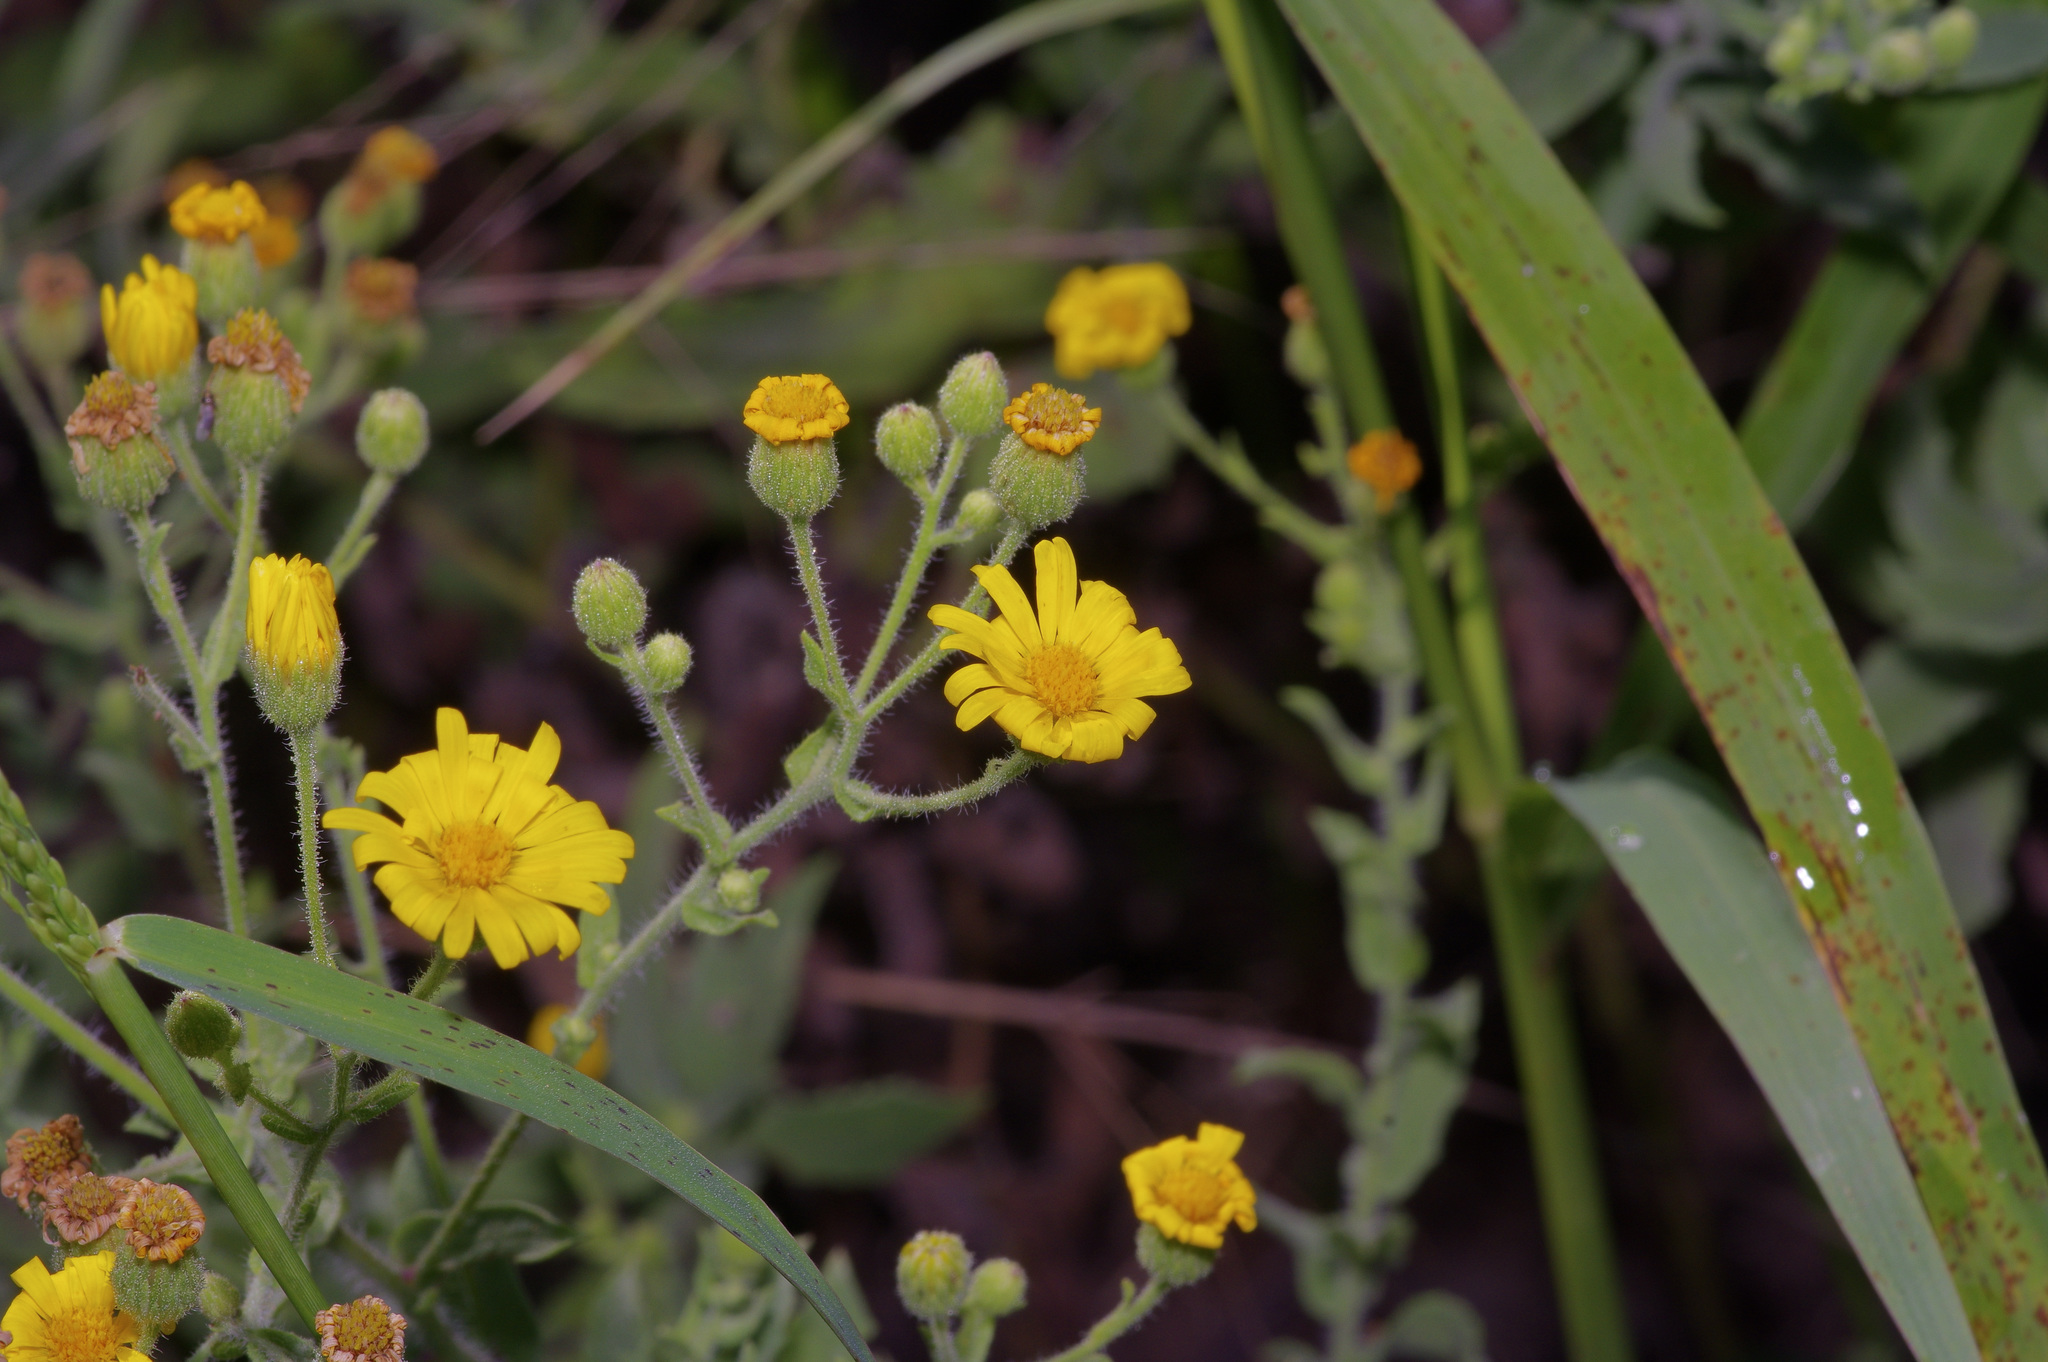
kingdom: Plantae
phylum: Tracheophyta
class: Magnoliopsida
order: Asterales
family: Asteraceae
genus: Heterotheca
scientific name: Heterotheca subaxillaris
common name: Camphorweed
